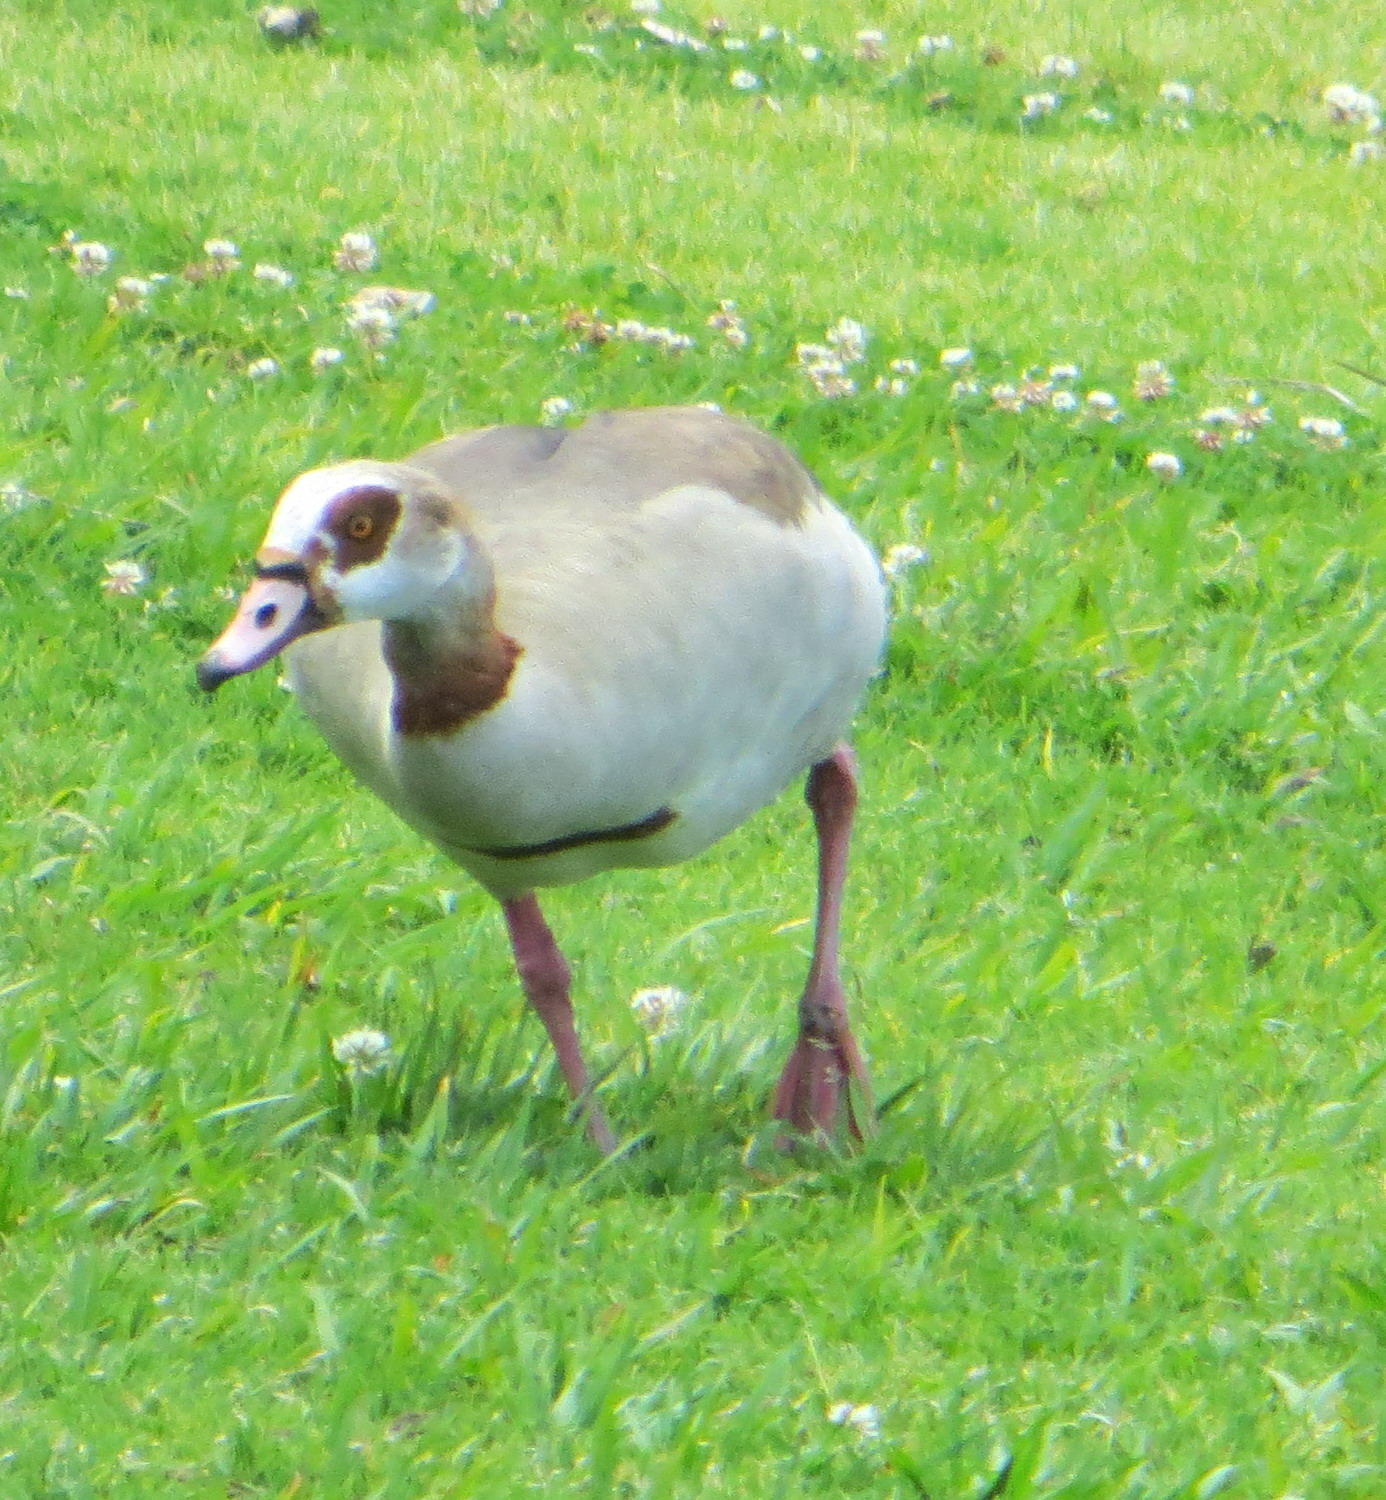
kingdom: Animalia
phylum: Chordata
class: Aves
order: Anseriformes
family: Anatidae
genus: Alopochen
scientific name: Alopochen aegyptiaca
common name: Egyptian goose
